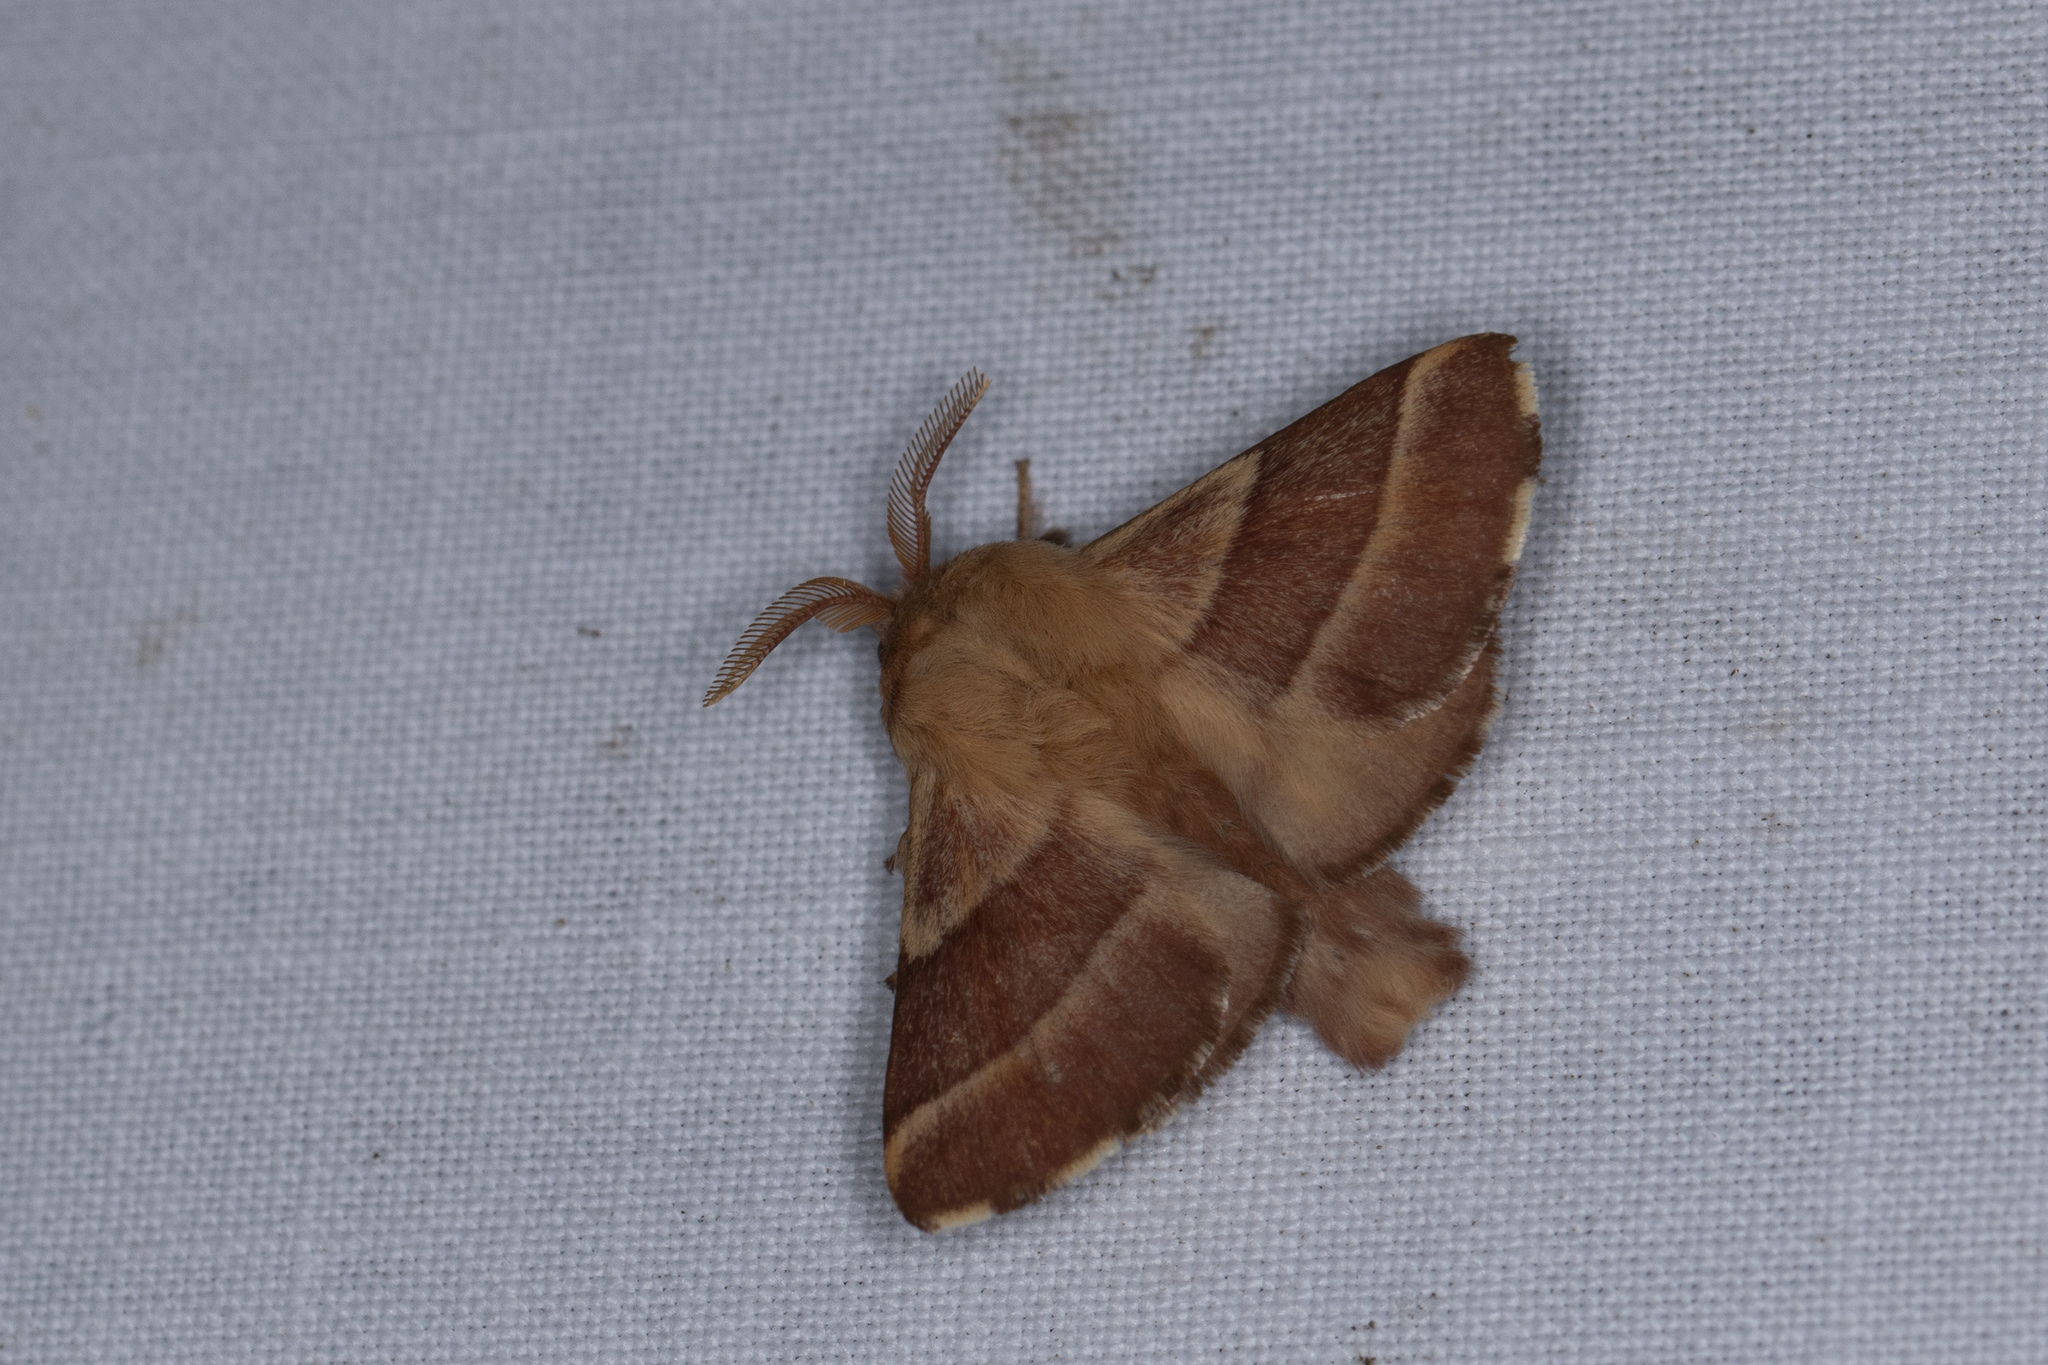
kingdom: Animalia
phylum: Arthropoda
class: Insecta
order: Lepidoptera
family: Lasiocampidae
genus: Malacosoma
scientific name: Malacosoma neustria
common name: The lackey
